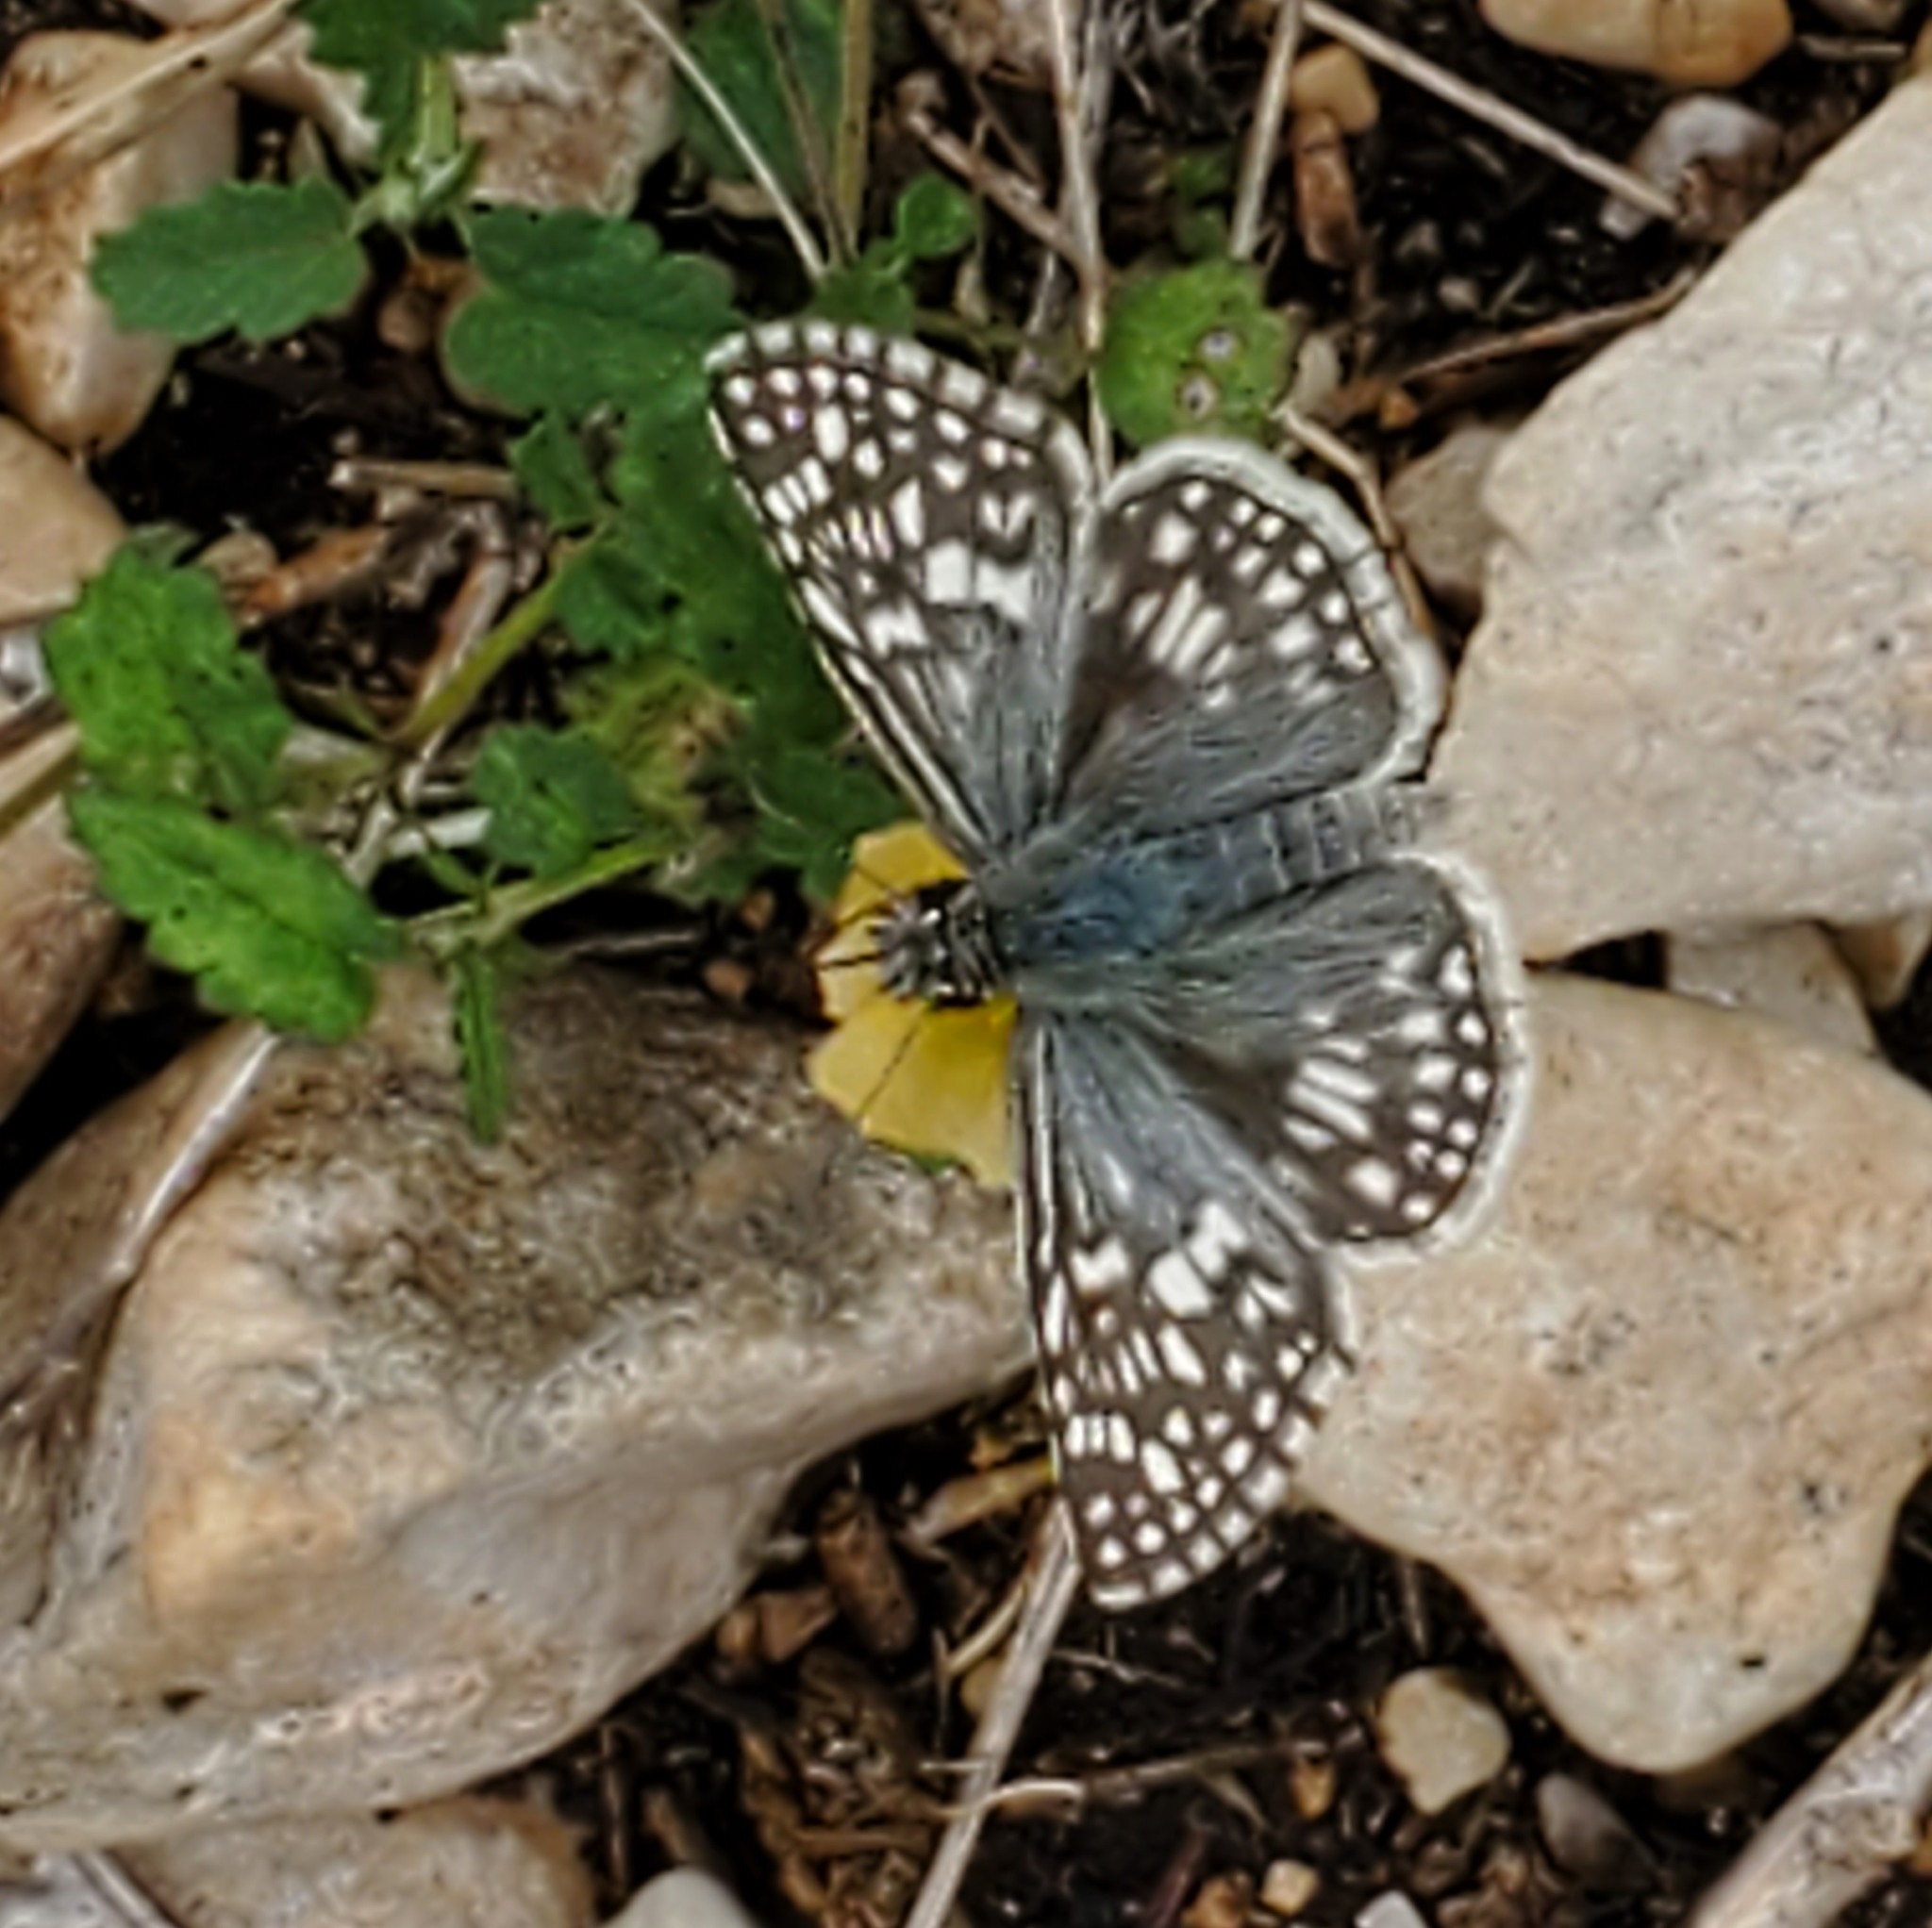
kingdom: Animalia
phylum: Arthropoda
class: Insecta
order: Lepidoptera
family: Hesperiidae
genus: Burnsius
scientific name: Burnsius philetas
